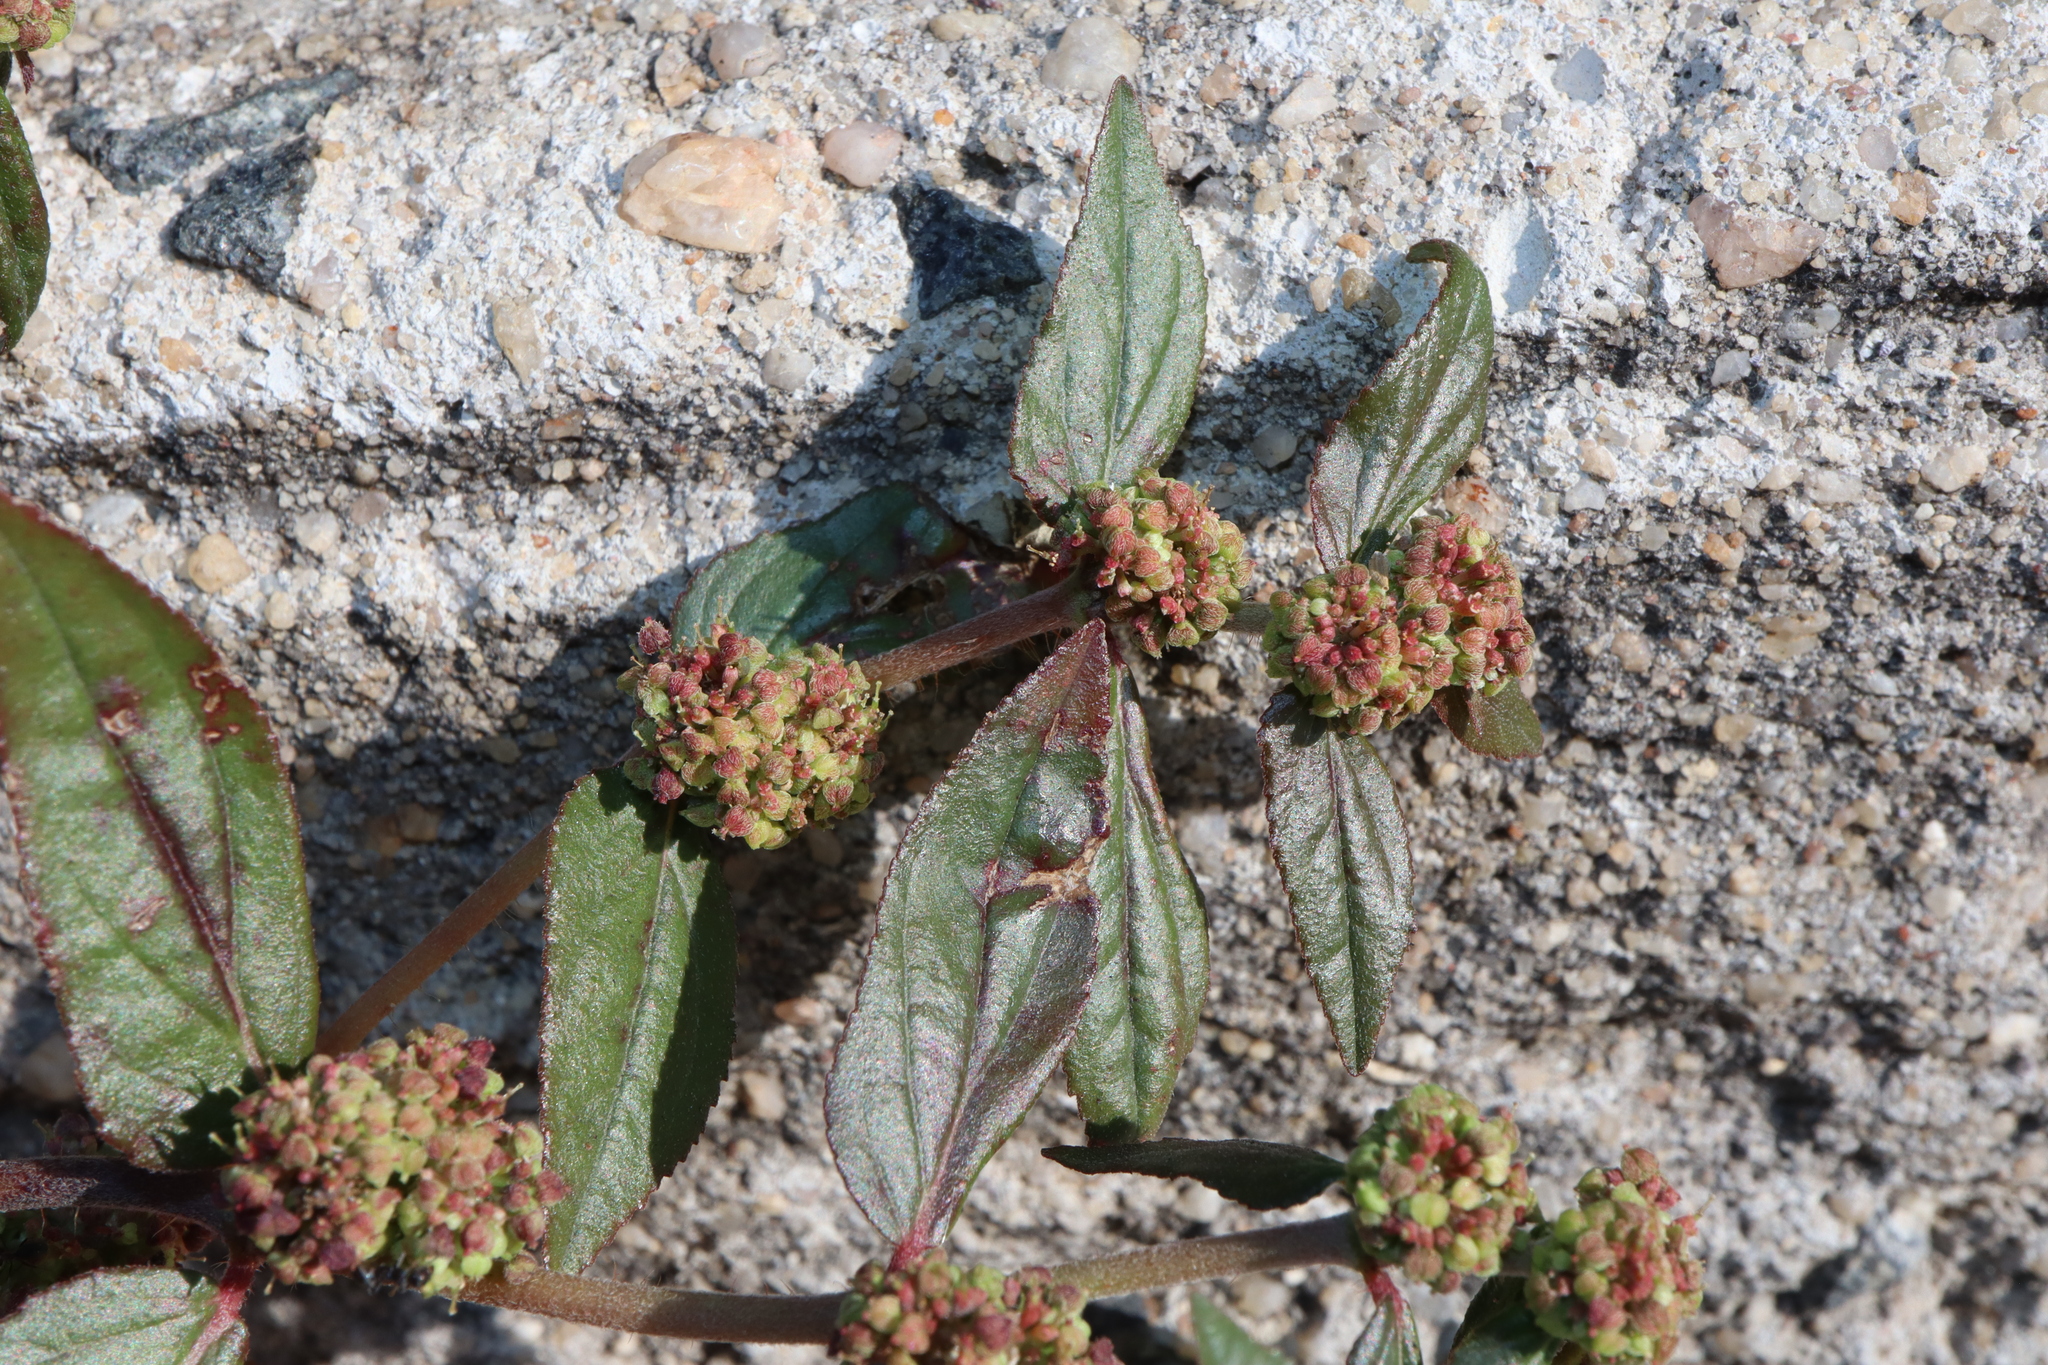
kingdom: Plantae
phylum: Tracheophyta
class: Magnoliopsida
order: Malpighiales
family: Euphorbiaceae
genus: Euphorbia
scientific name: Euphorbia hirta
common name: Pillpod sandmat
